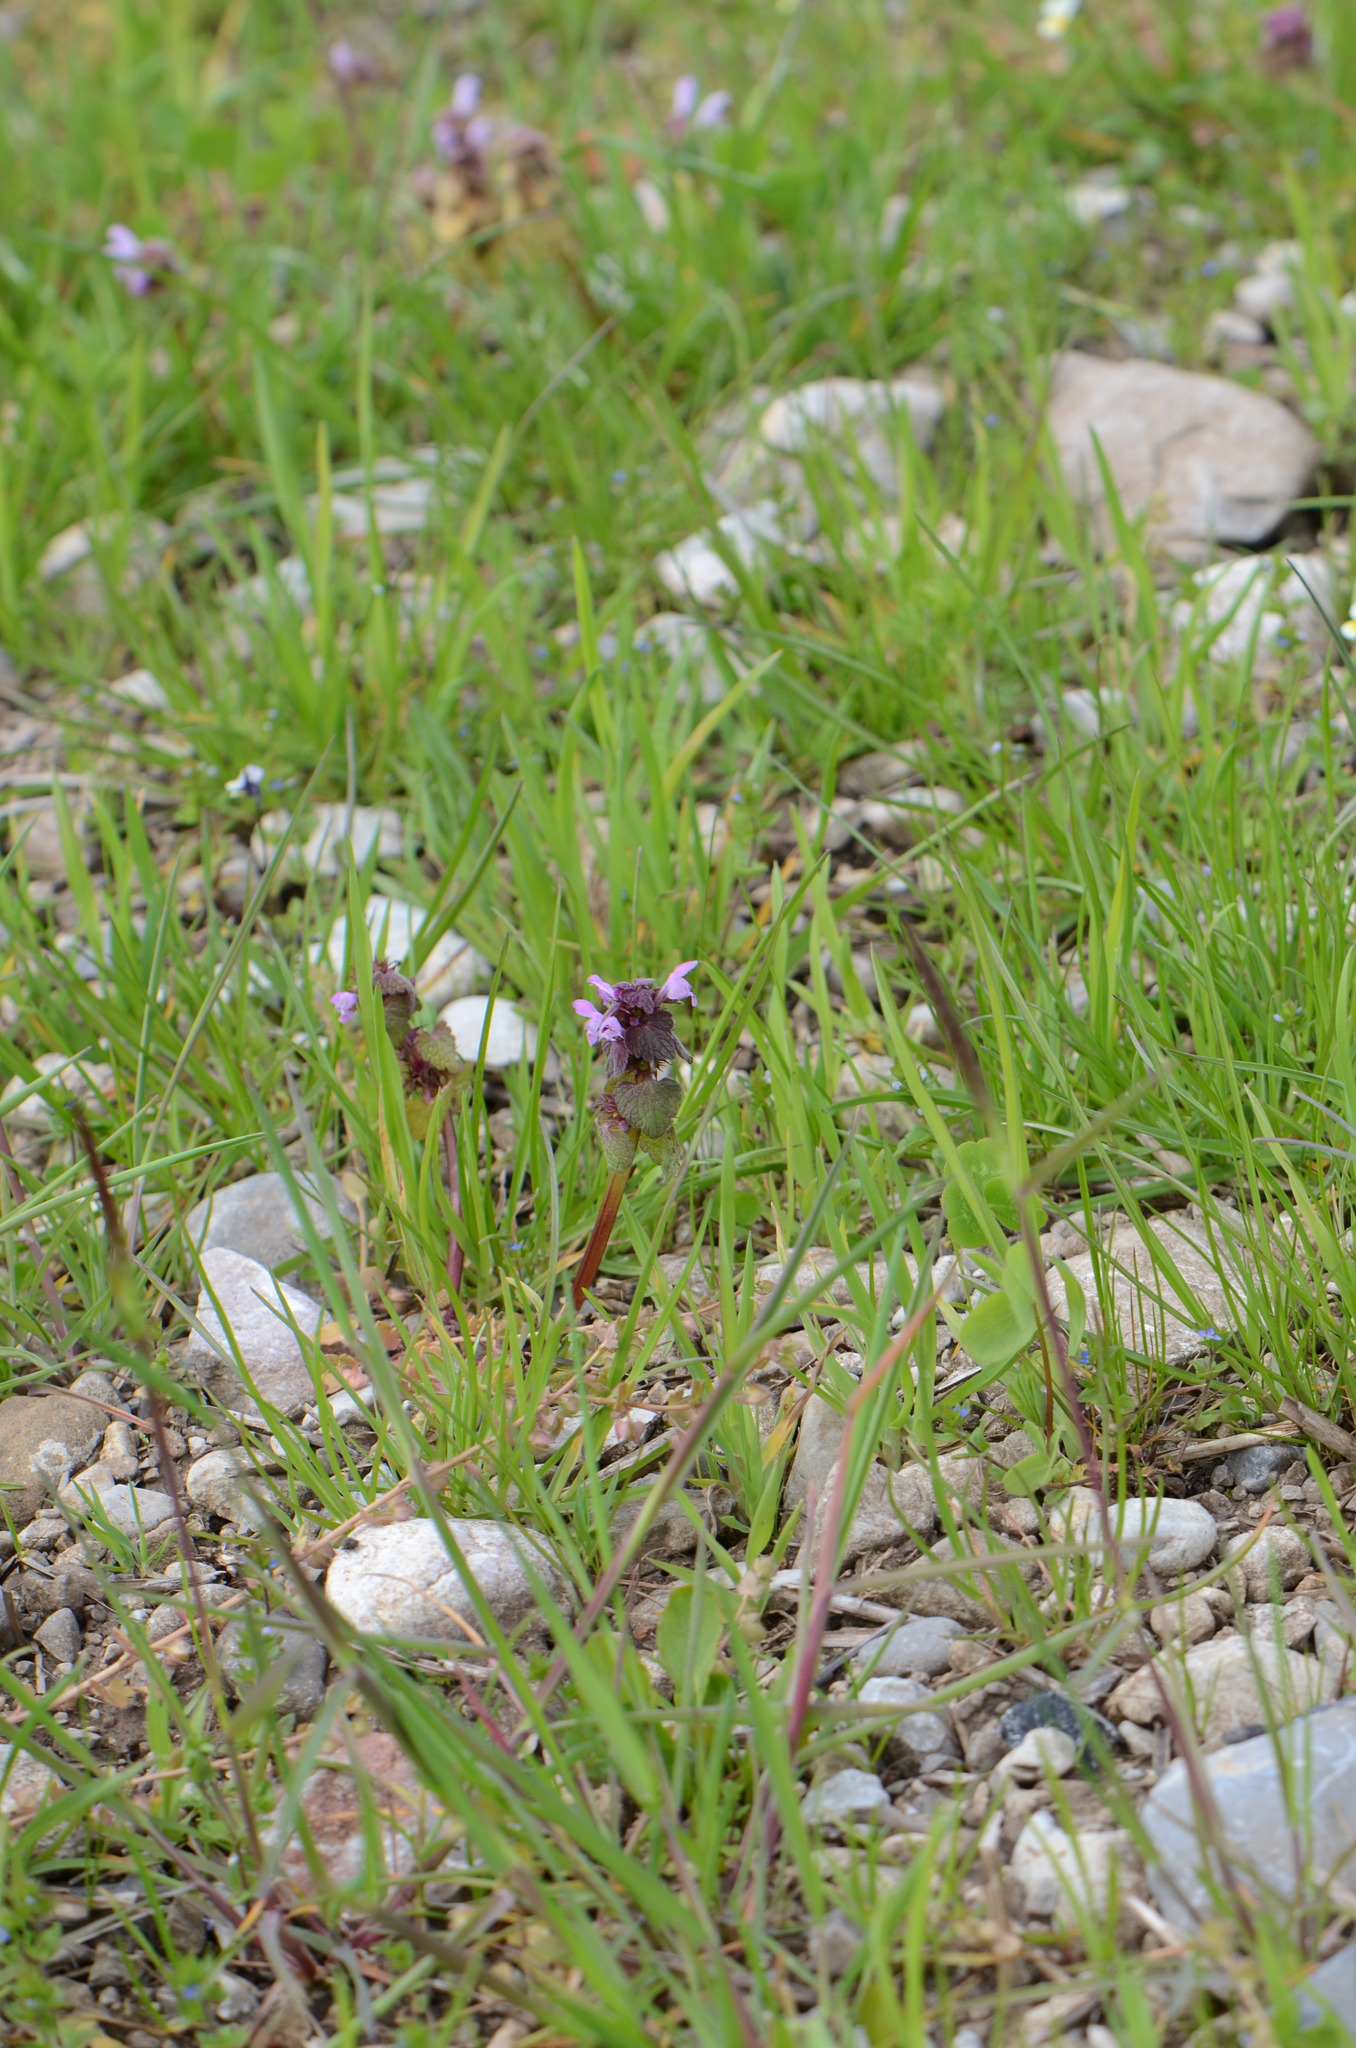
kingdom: Plantae
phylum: Tracheophyta
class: Magnoliopsida
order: Lamiales
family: Lamiaceae
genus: Lamium
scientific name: Lamium purpureum
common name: Red dead-nettle
